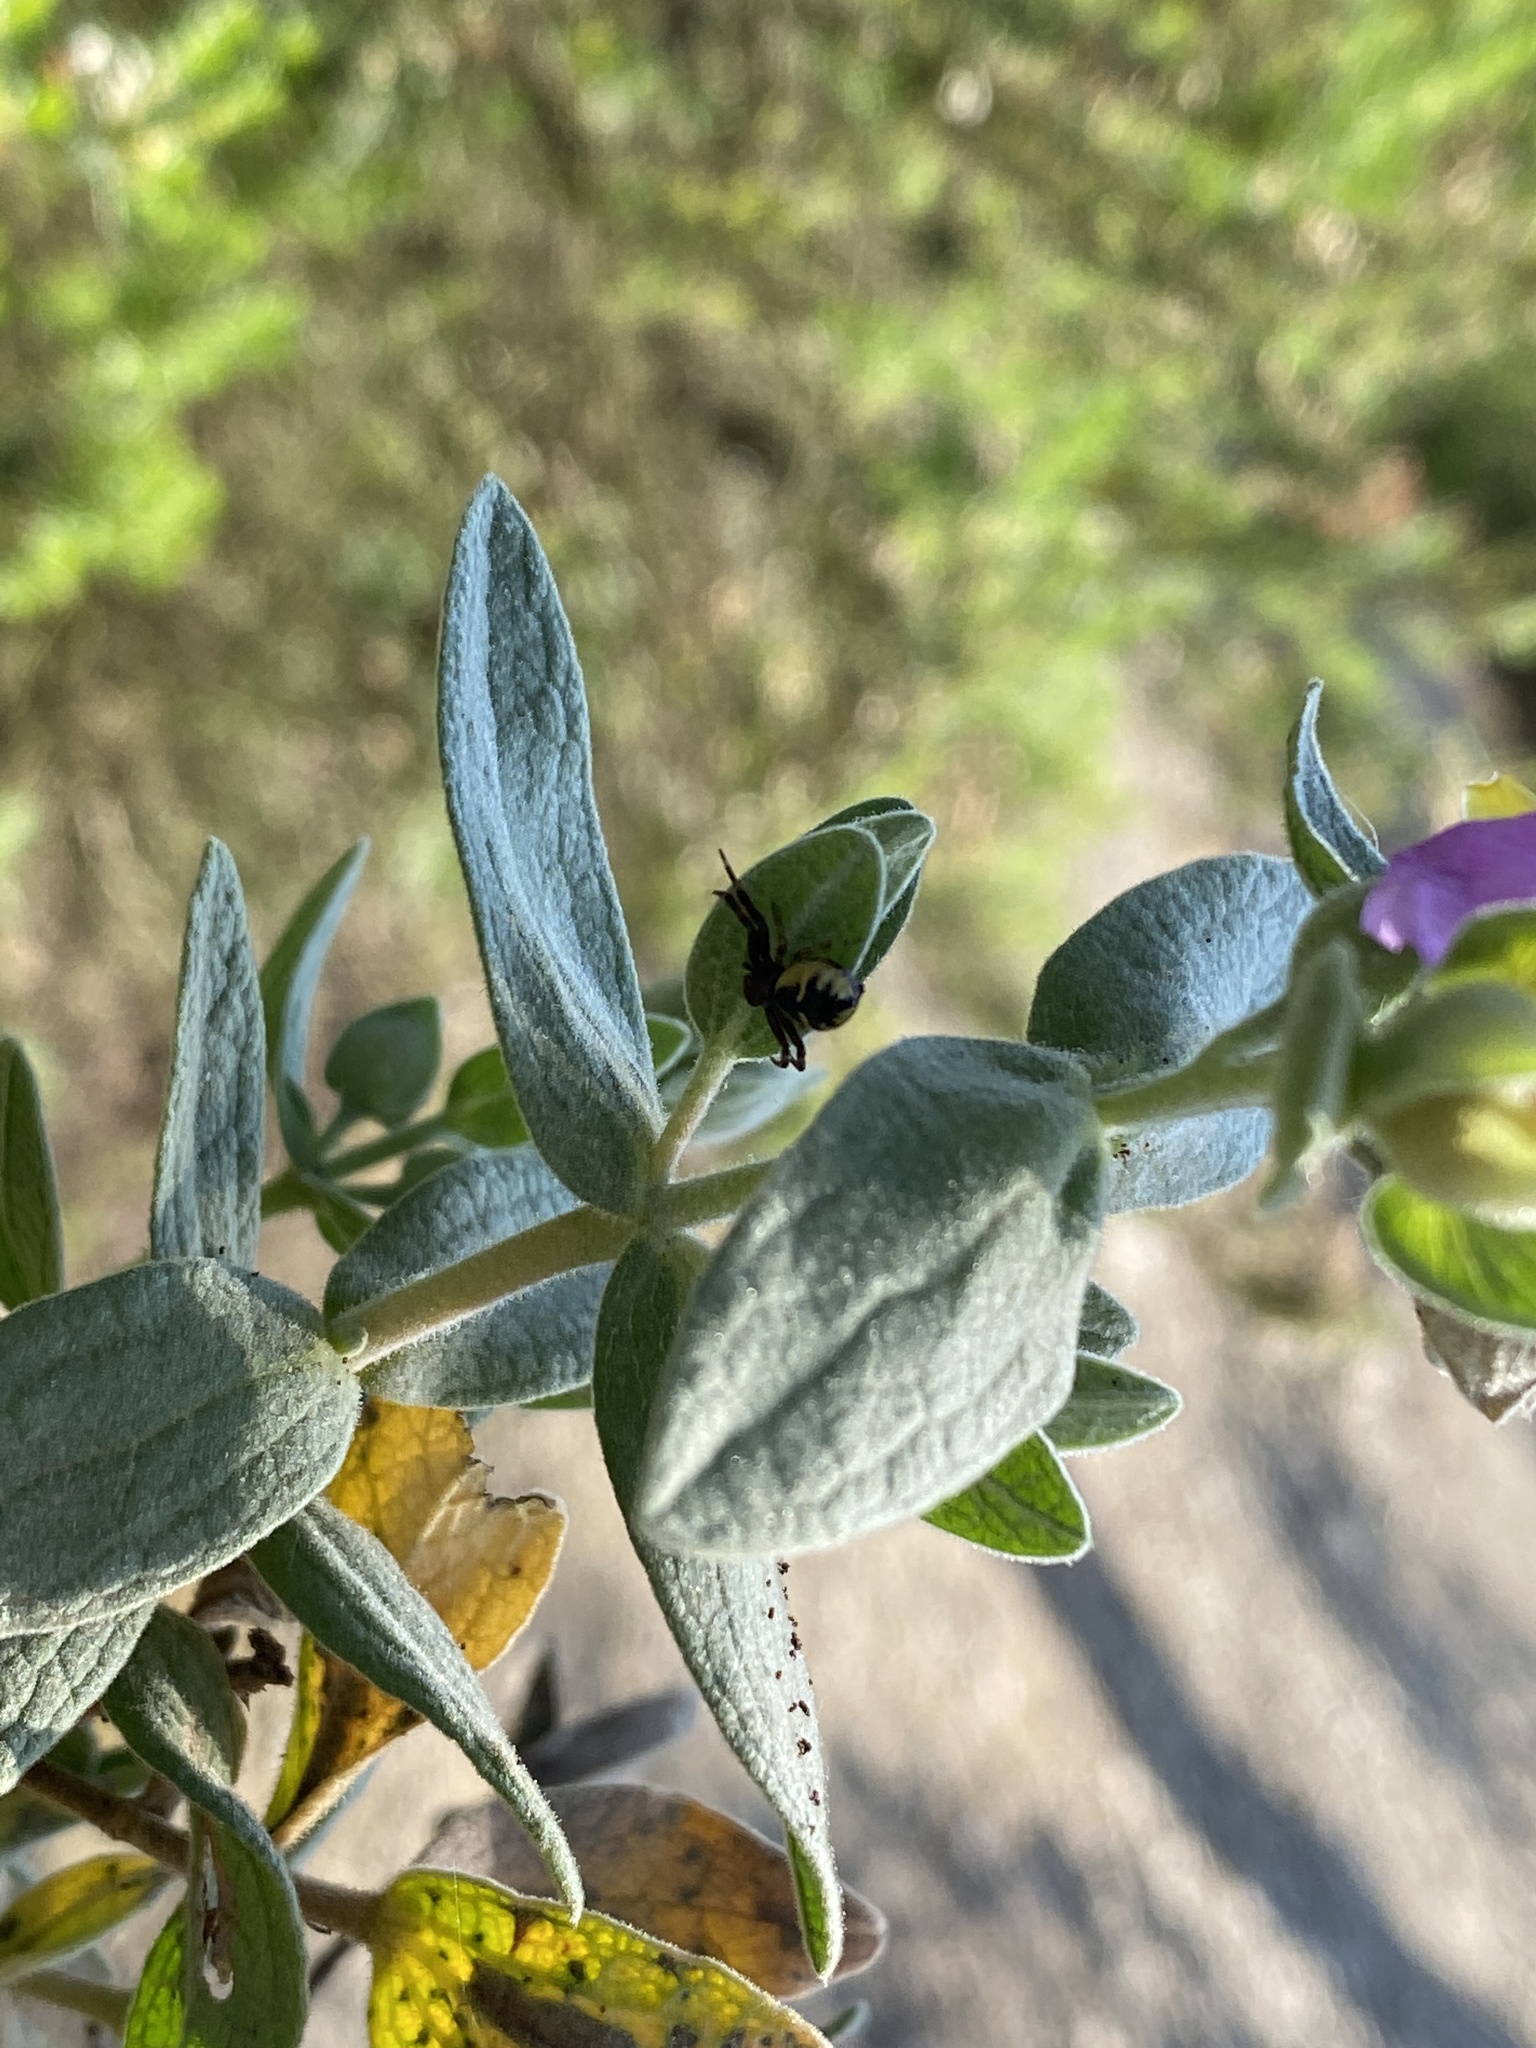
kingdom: Animalia
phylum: Arthropoda
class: Arachnida
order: Araneae
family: Thomisidae
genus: Synema
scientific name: Synema globosum
